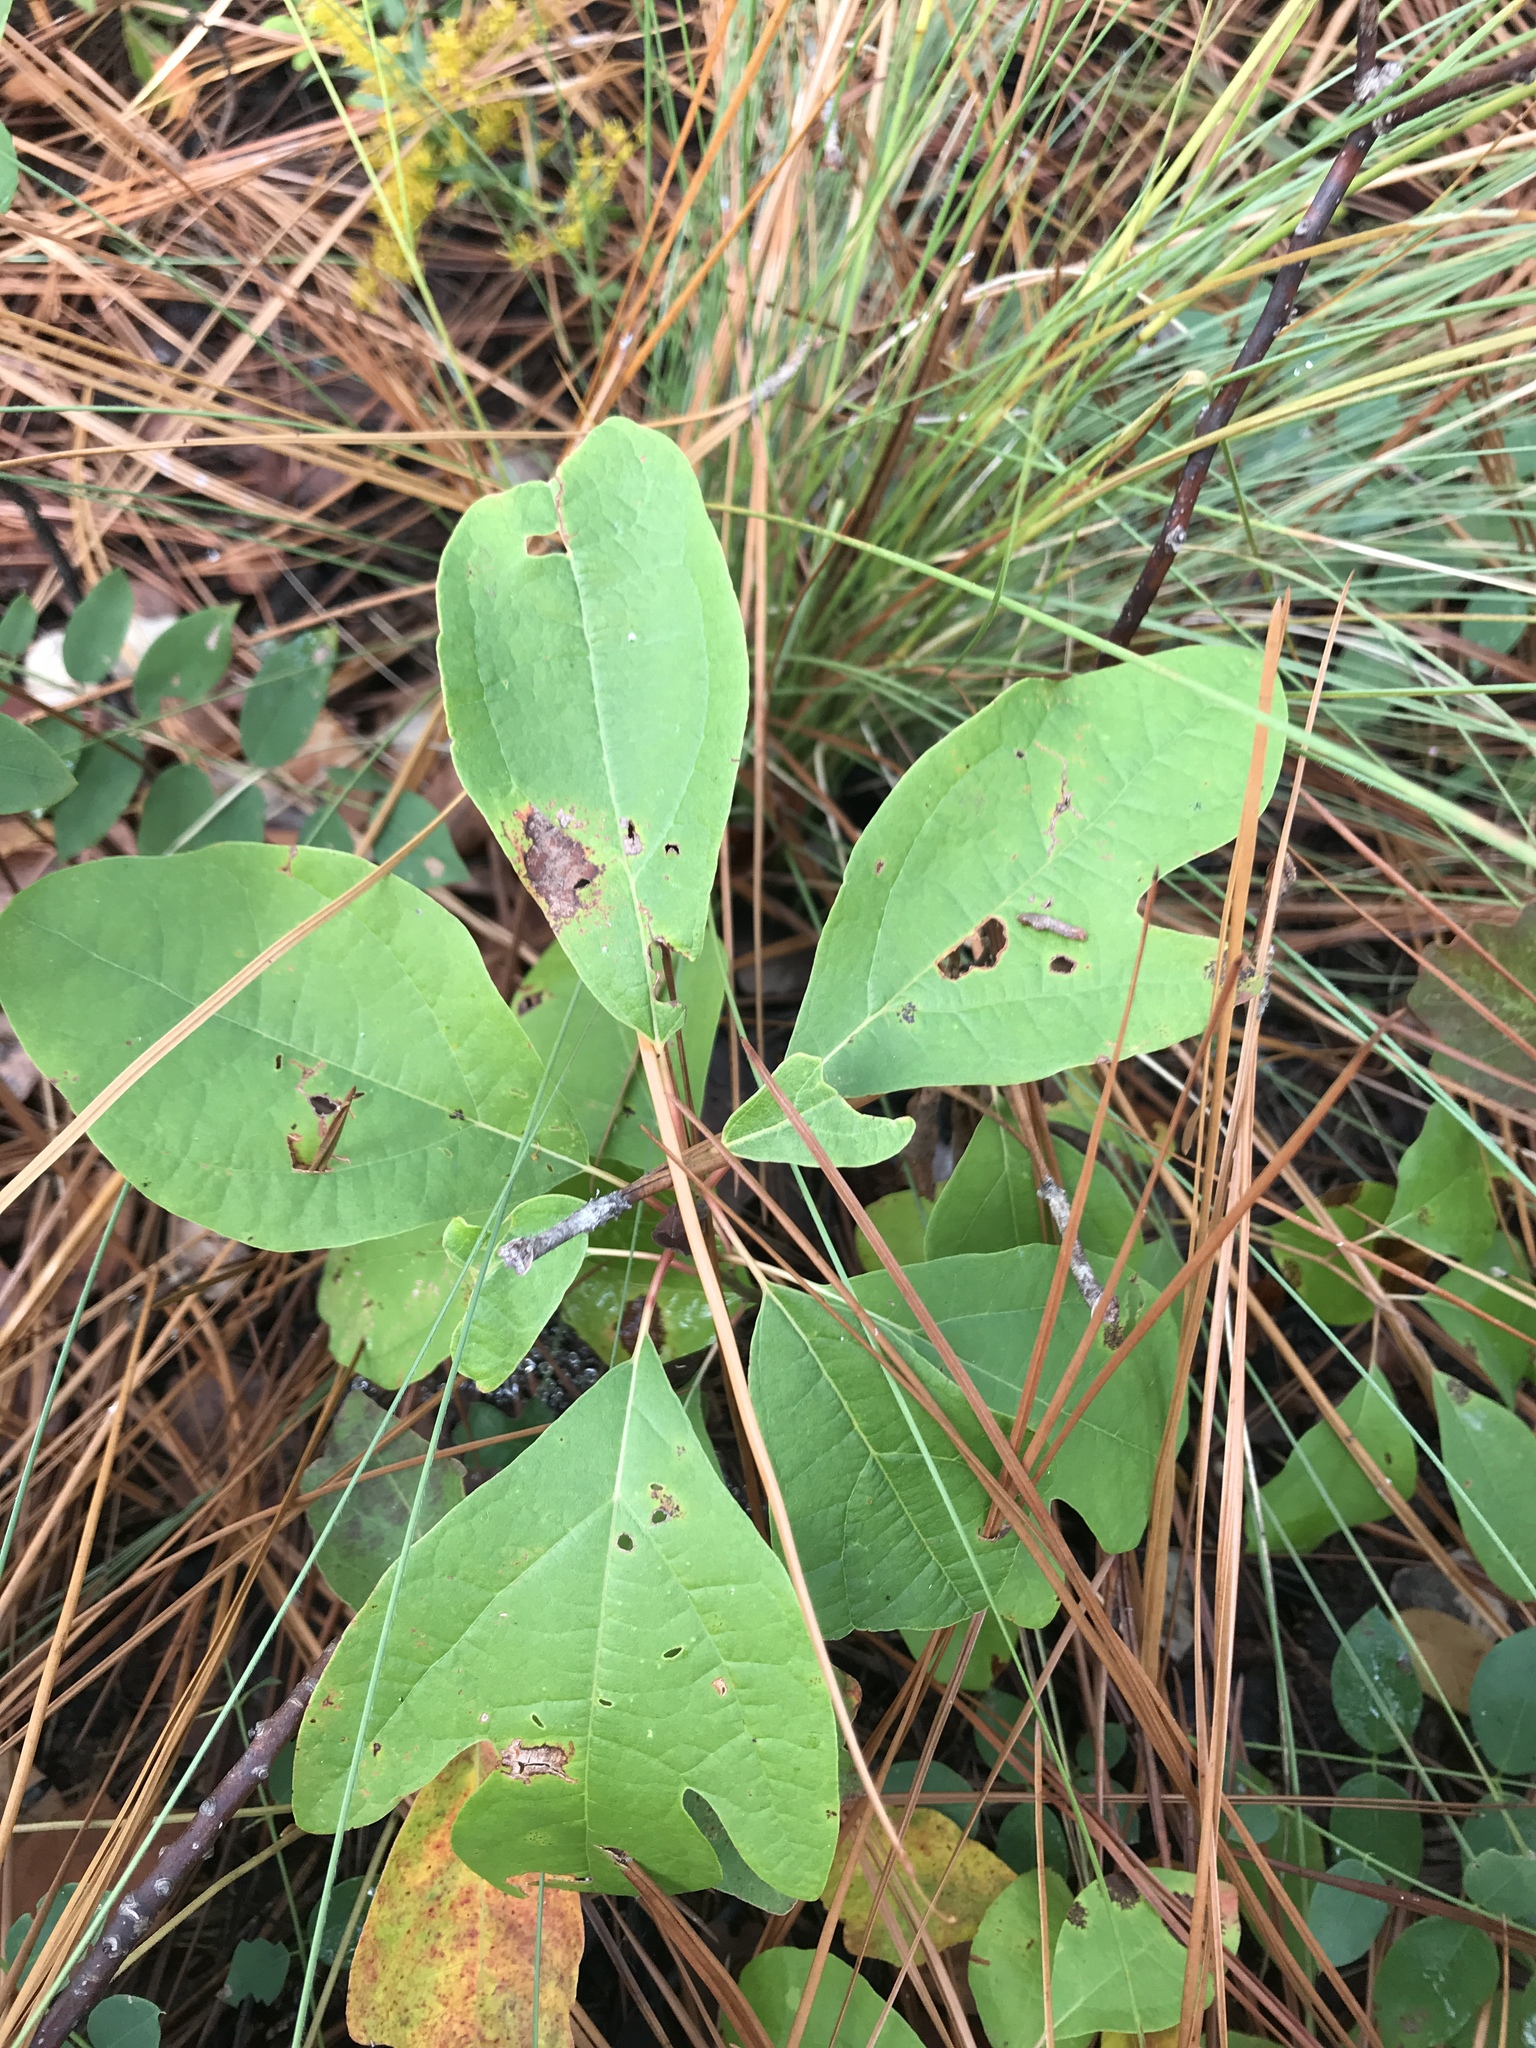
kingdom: Plantae
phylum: Tracheophyta
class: Magnoliopsida
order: Laurales
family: Lauraceae
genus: Sassafras
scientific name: Sassafras albidum
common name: Sassafras
